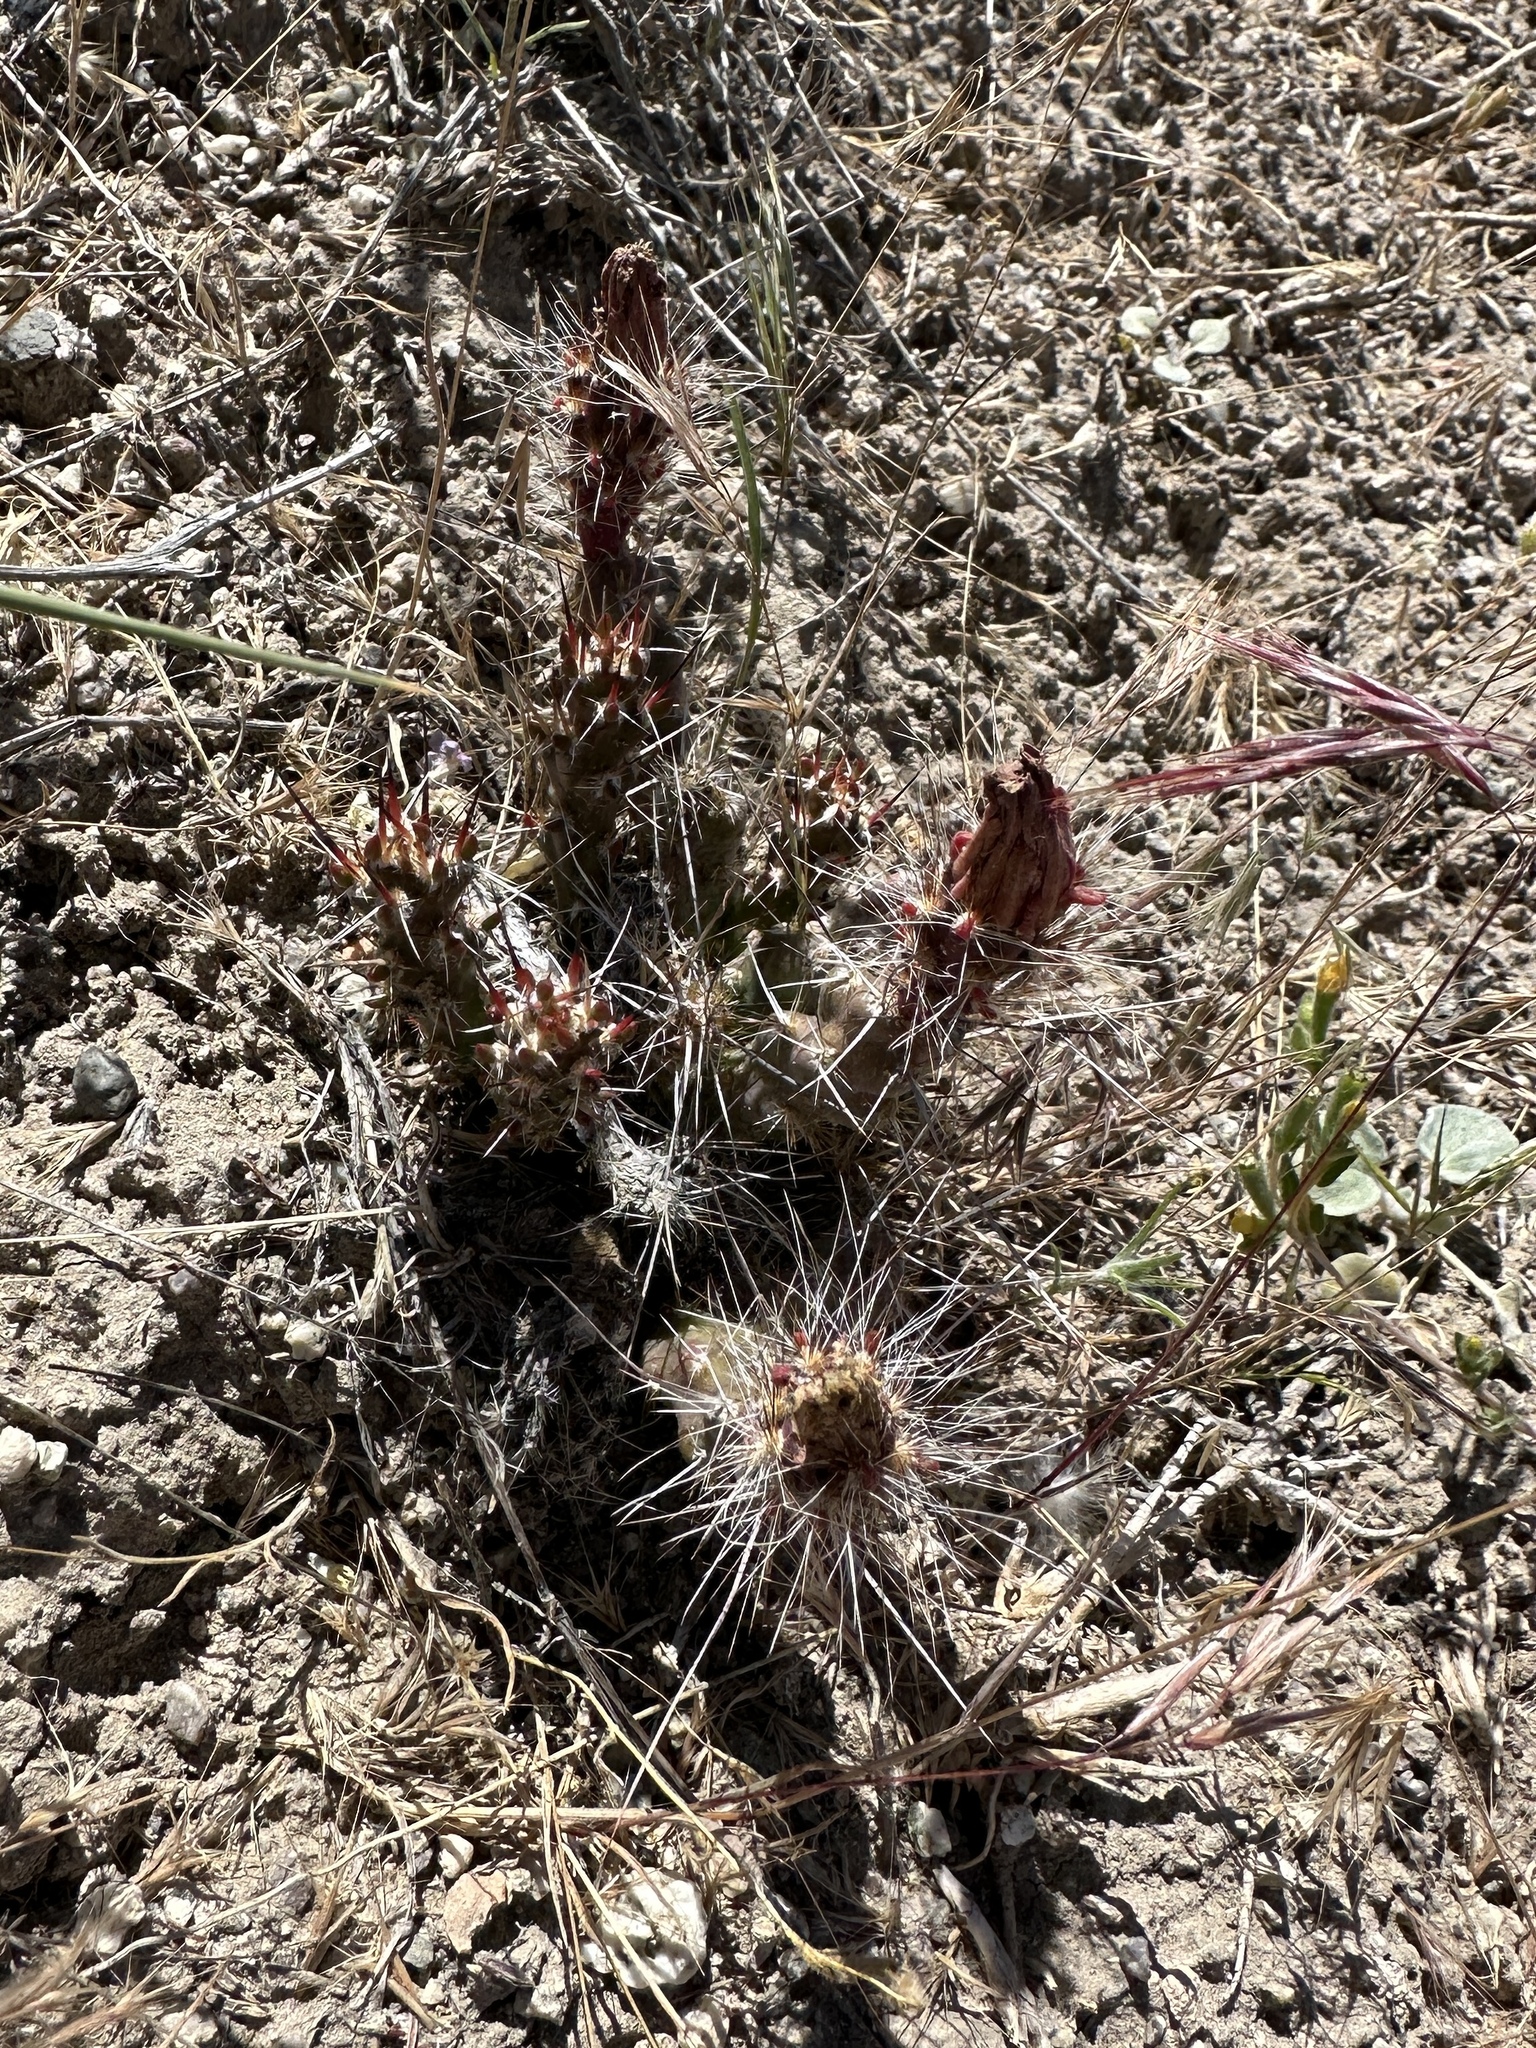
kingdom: Plantae
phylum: Tracheophyta
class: Magnoliopsida
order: Caryophyllales
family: Cactaceae
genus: Micropuntia
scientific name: Micropuntia pulchella
